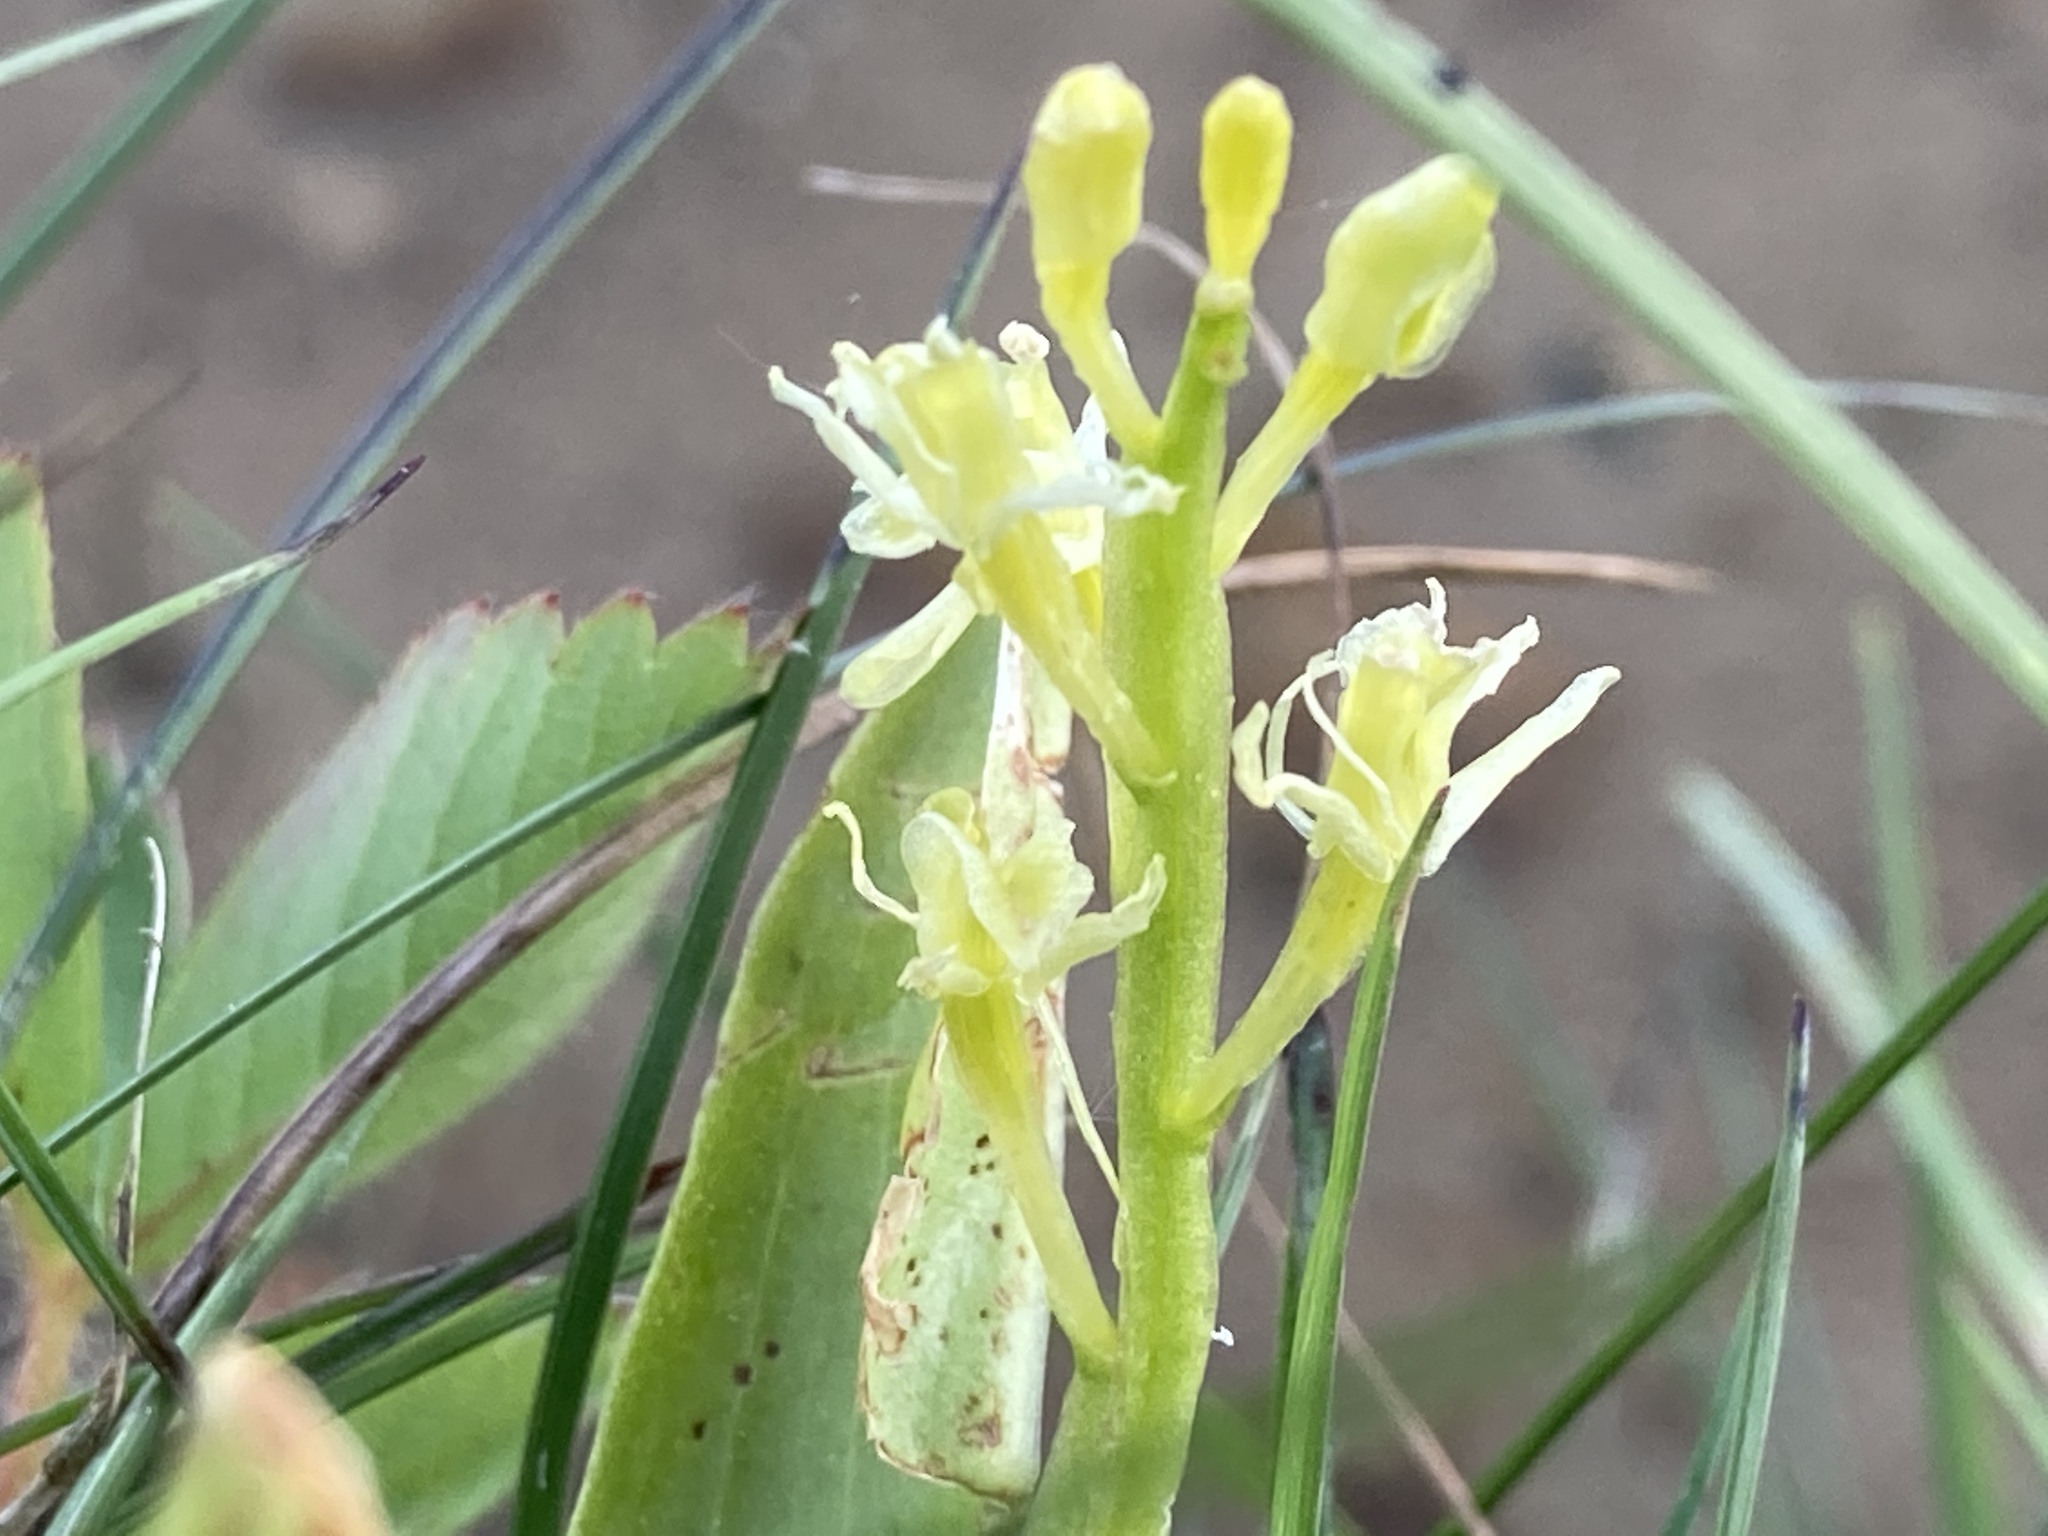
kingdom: Animalia
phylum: Arthropoda
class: Insecta
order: Coleoptera
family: Curculionidae
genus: Liparis
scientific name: Liparis loeselii
